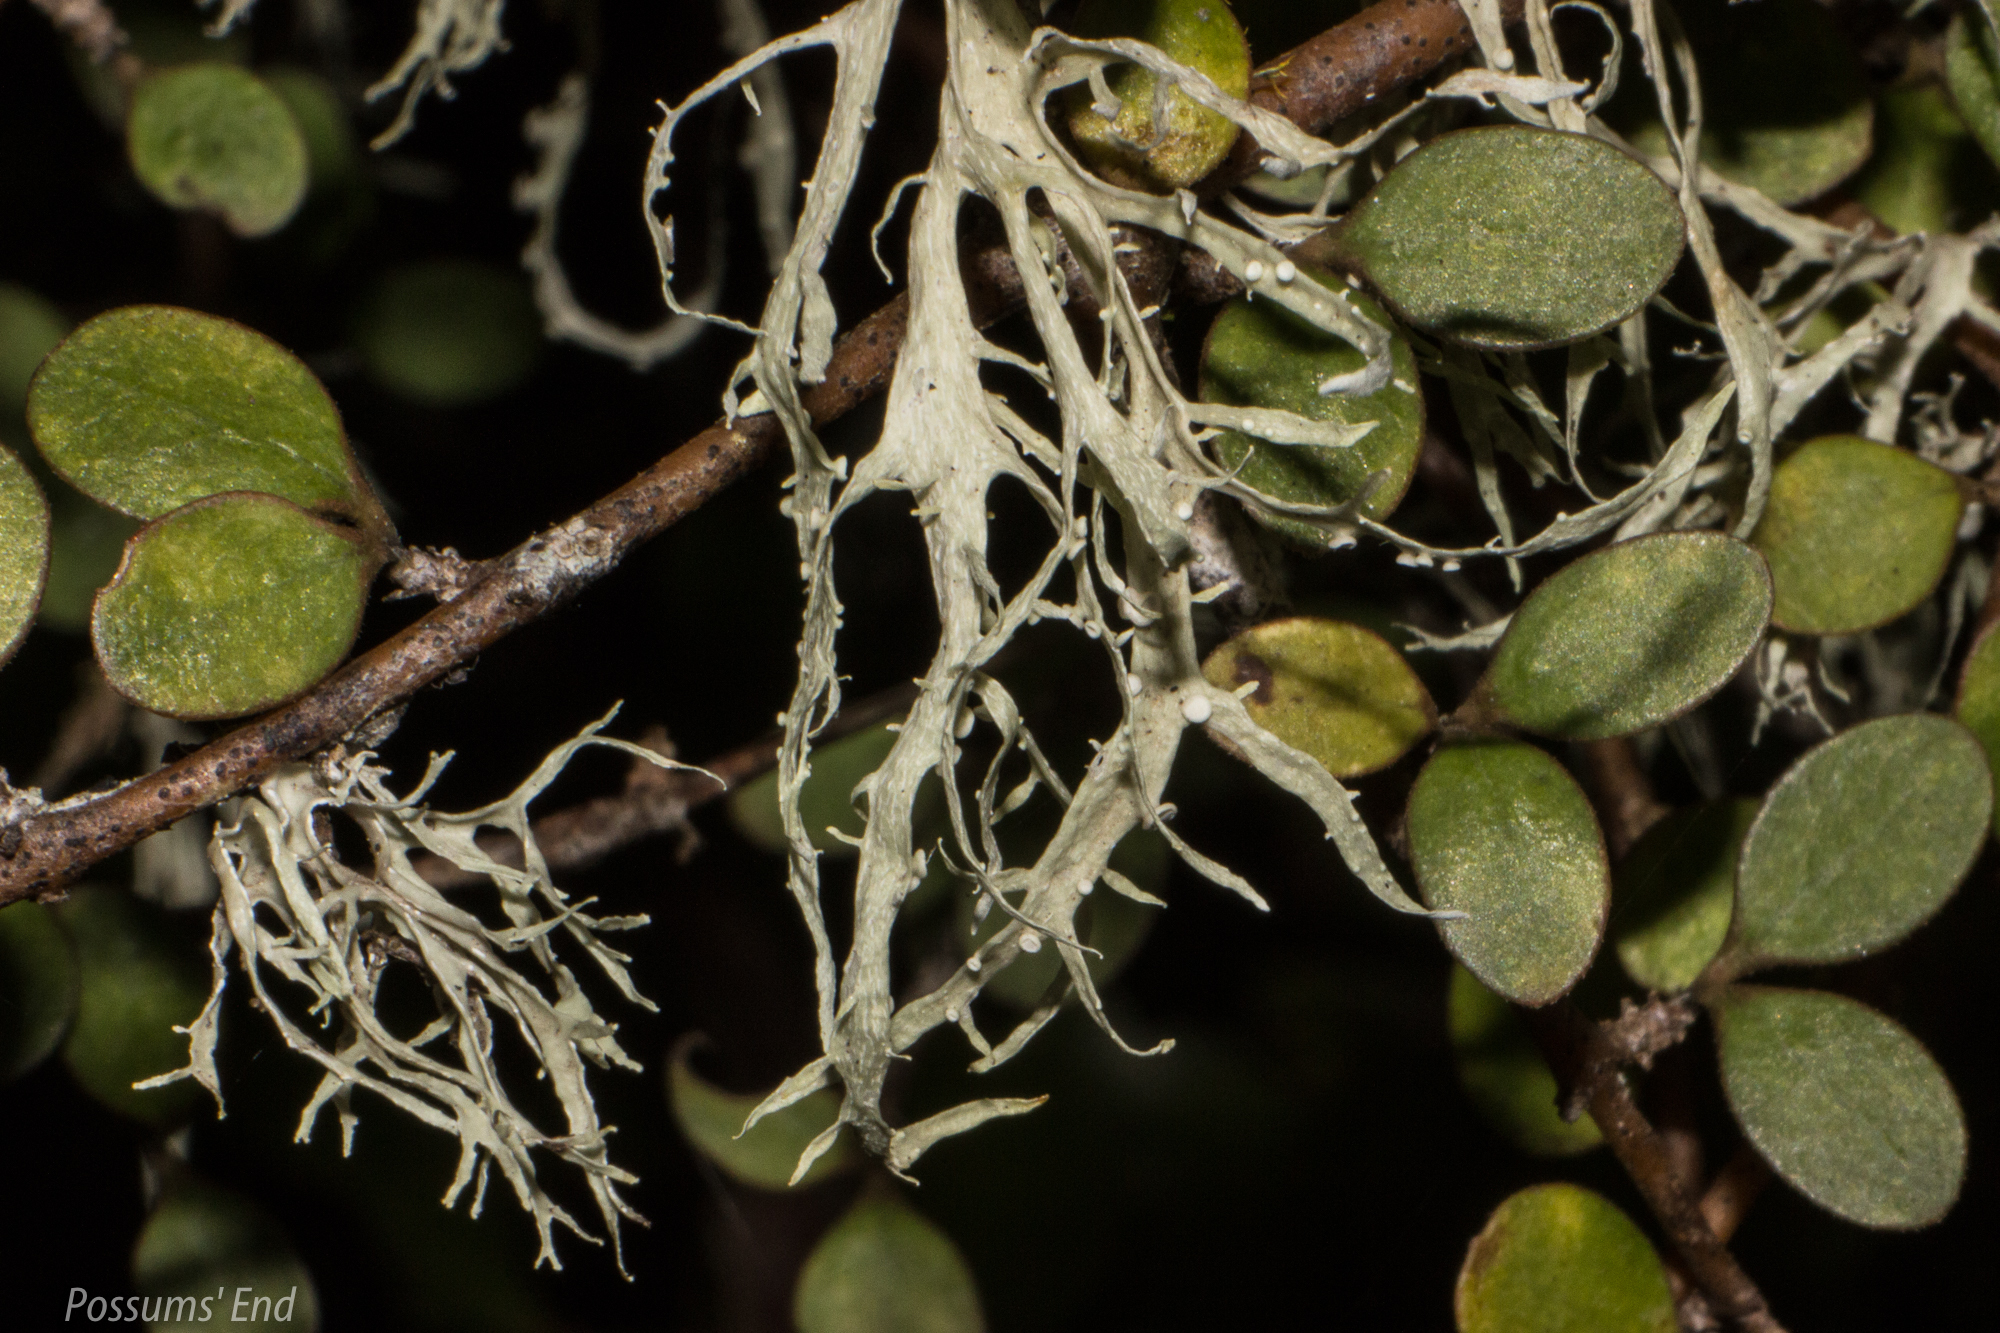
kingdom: Fungi
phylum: Ascomycota
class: Lecanoromycetes
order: Lecanorales
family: Ramalinaceae
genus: Ramalina
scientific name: Ramalina celastri
